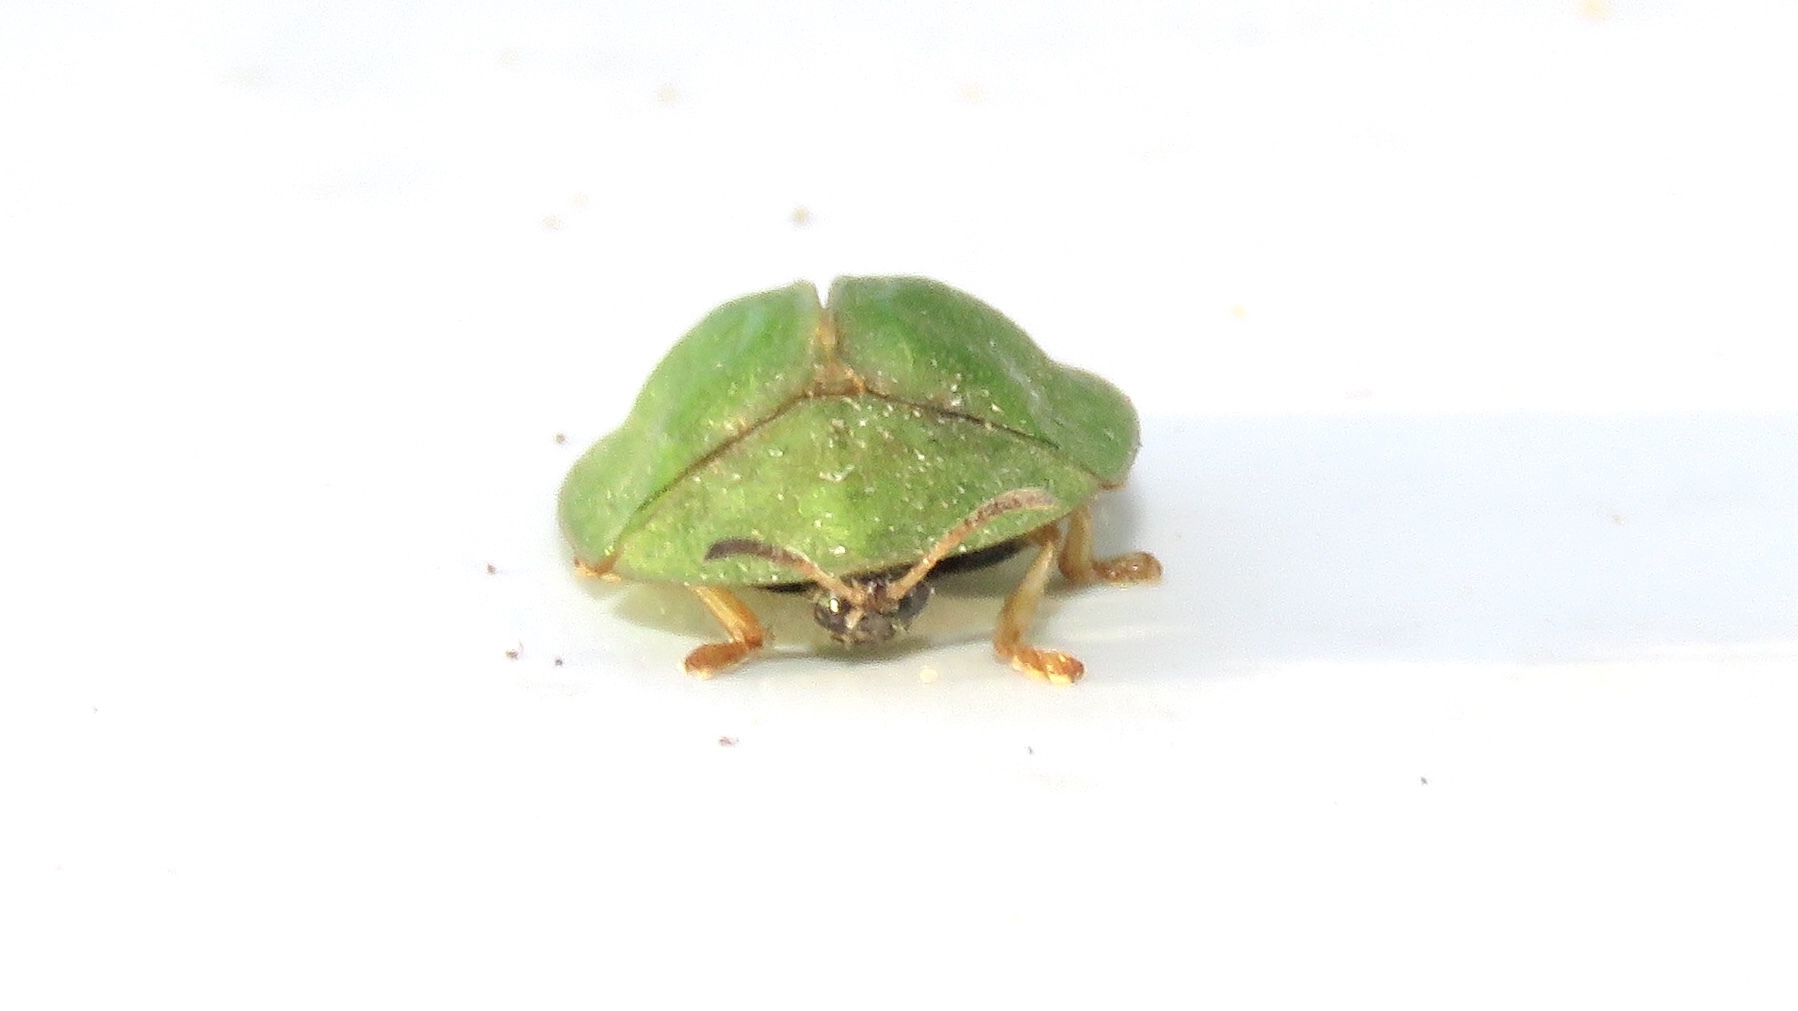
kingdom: Animalia
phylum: Arthropoda
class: Insecta
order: Coleoptera
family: Chrysomelidae
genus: Cassida
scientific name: Cassida rubiginosa
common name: Thistle tortoise beetle
